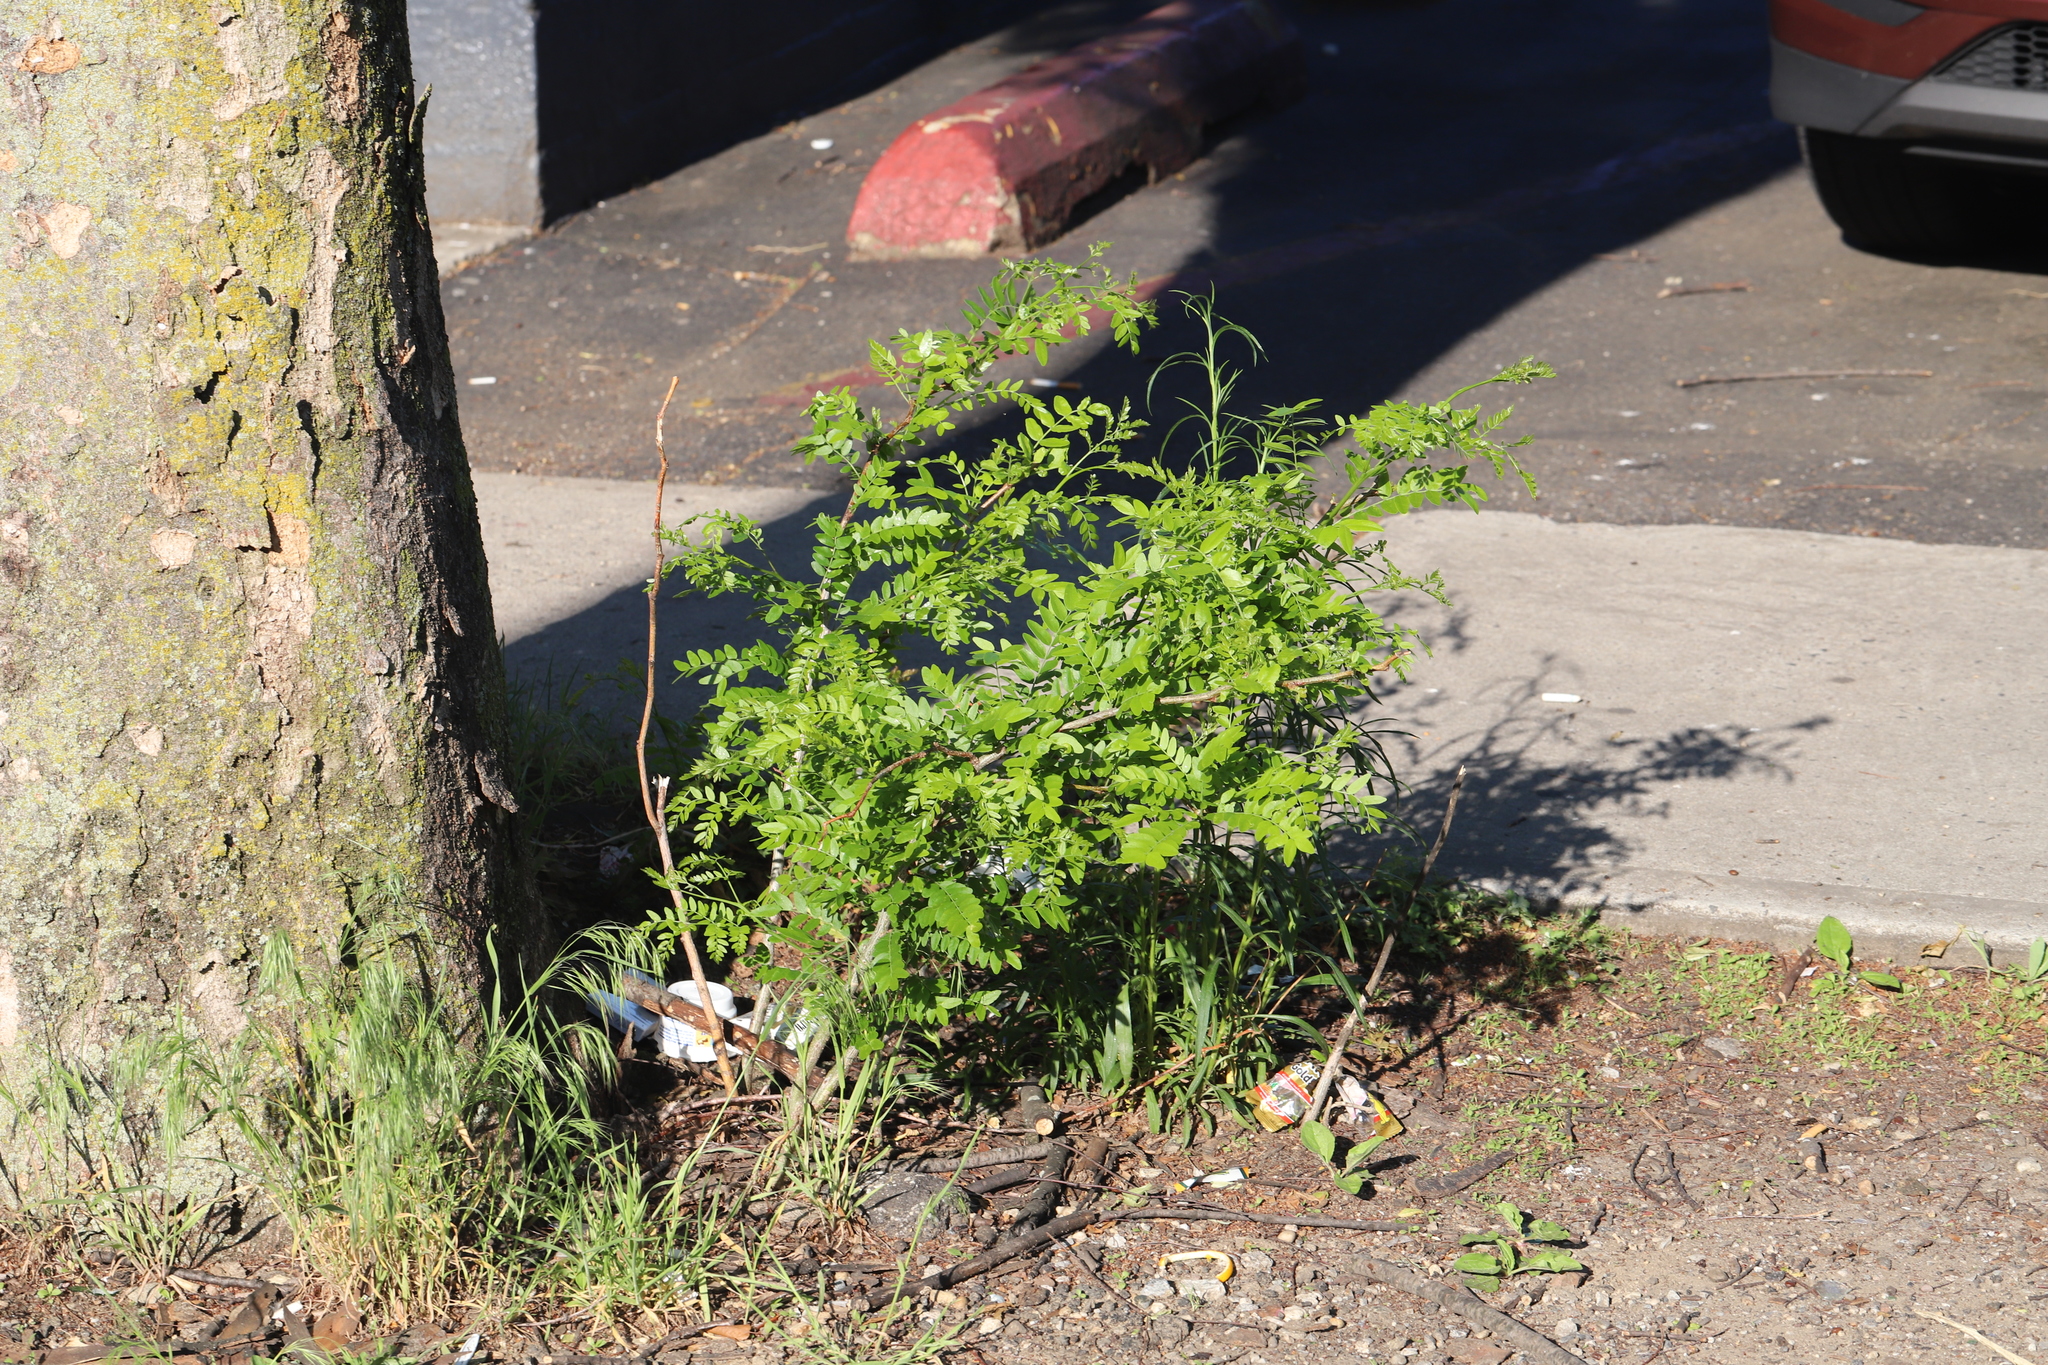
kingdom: Plantae
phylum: Tracheophyta
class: Magnoliopsida
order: Fabales
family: Fabaceae
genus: Gleditsia
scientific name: Gleditsia triacanthos
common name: Common honeylocust
